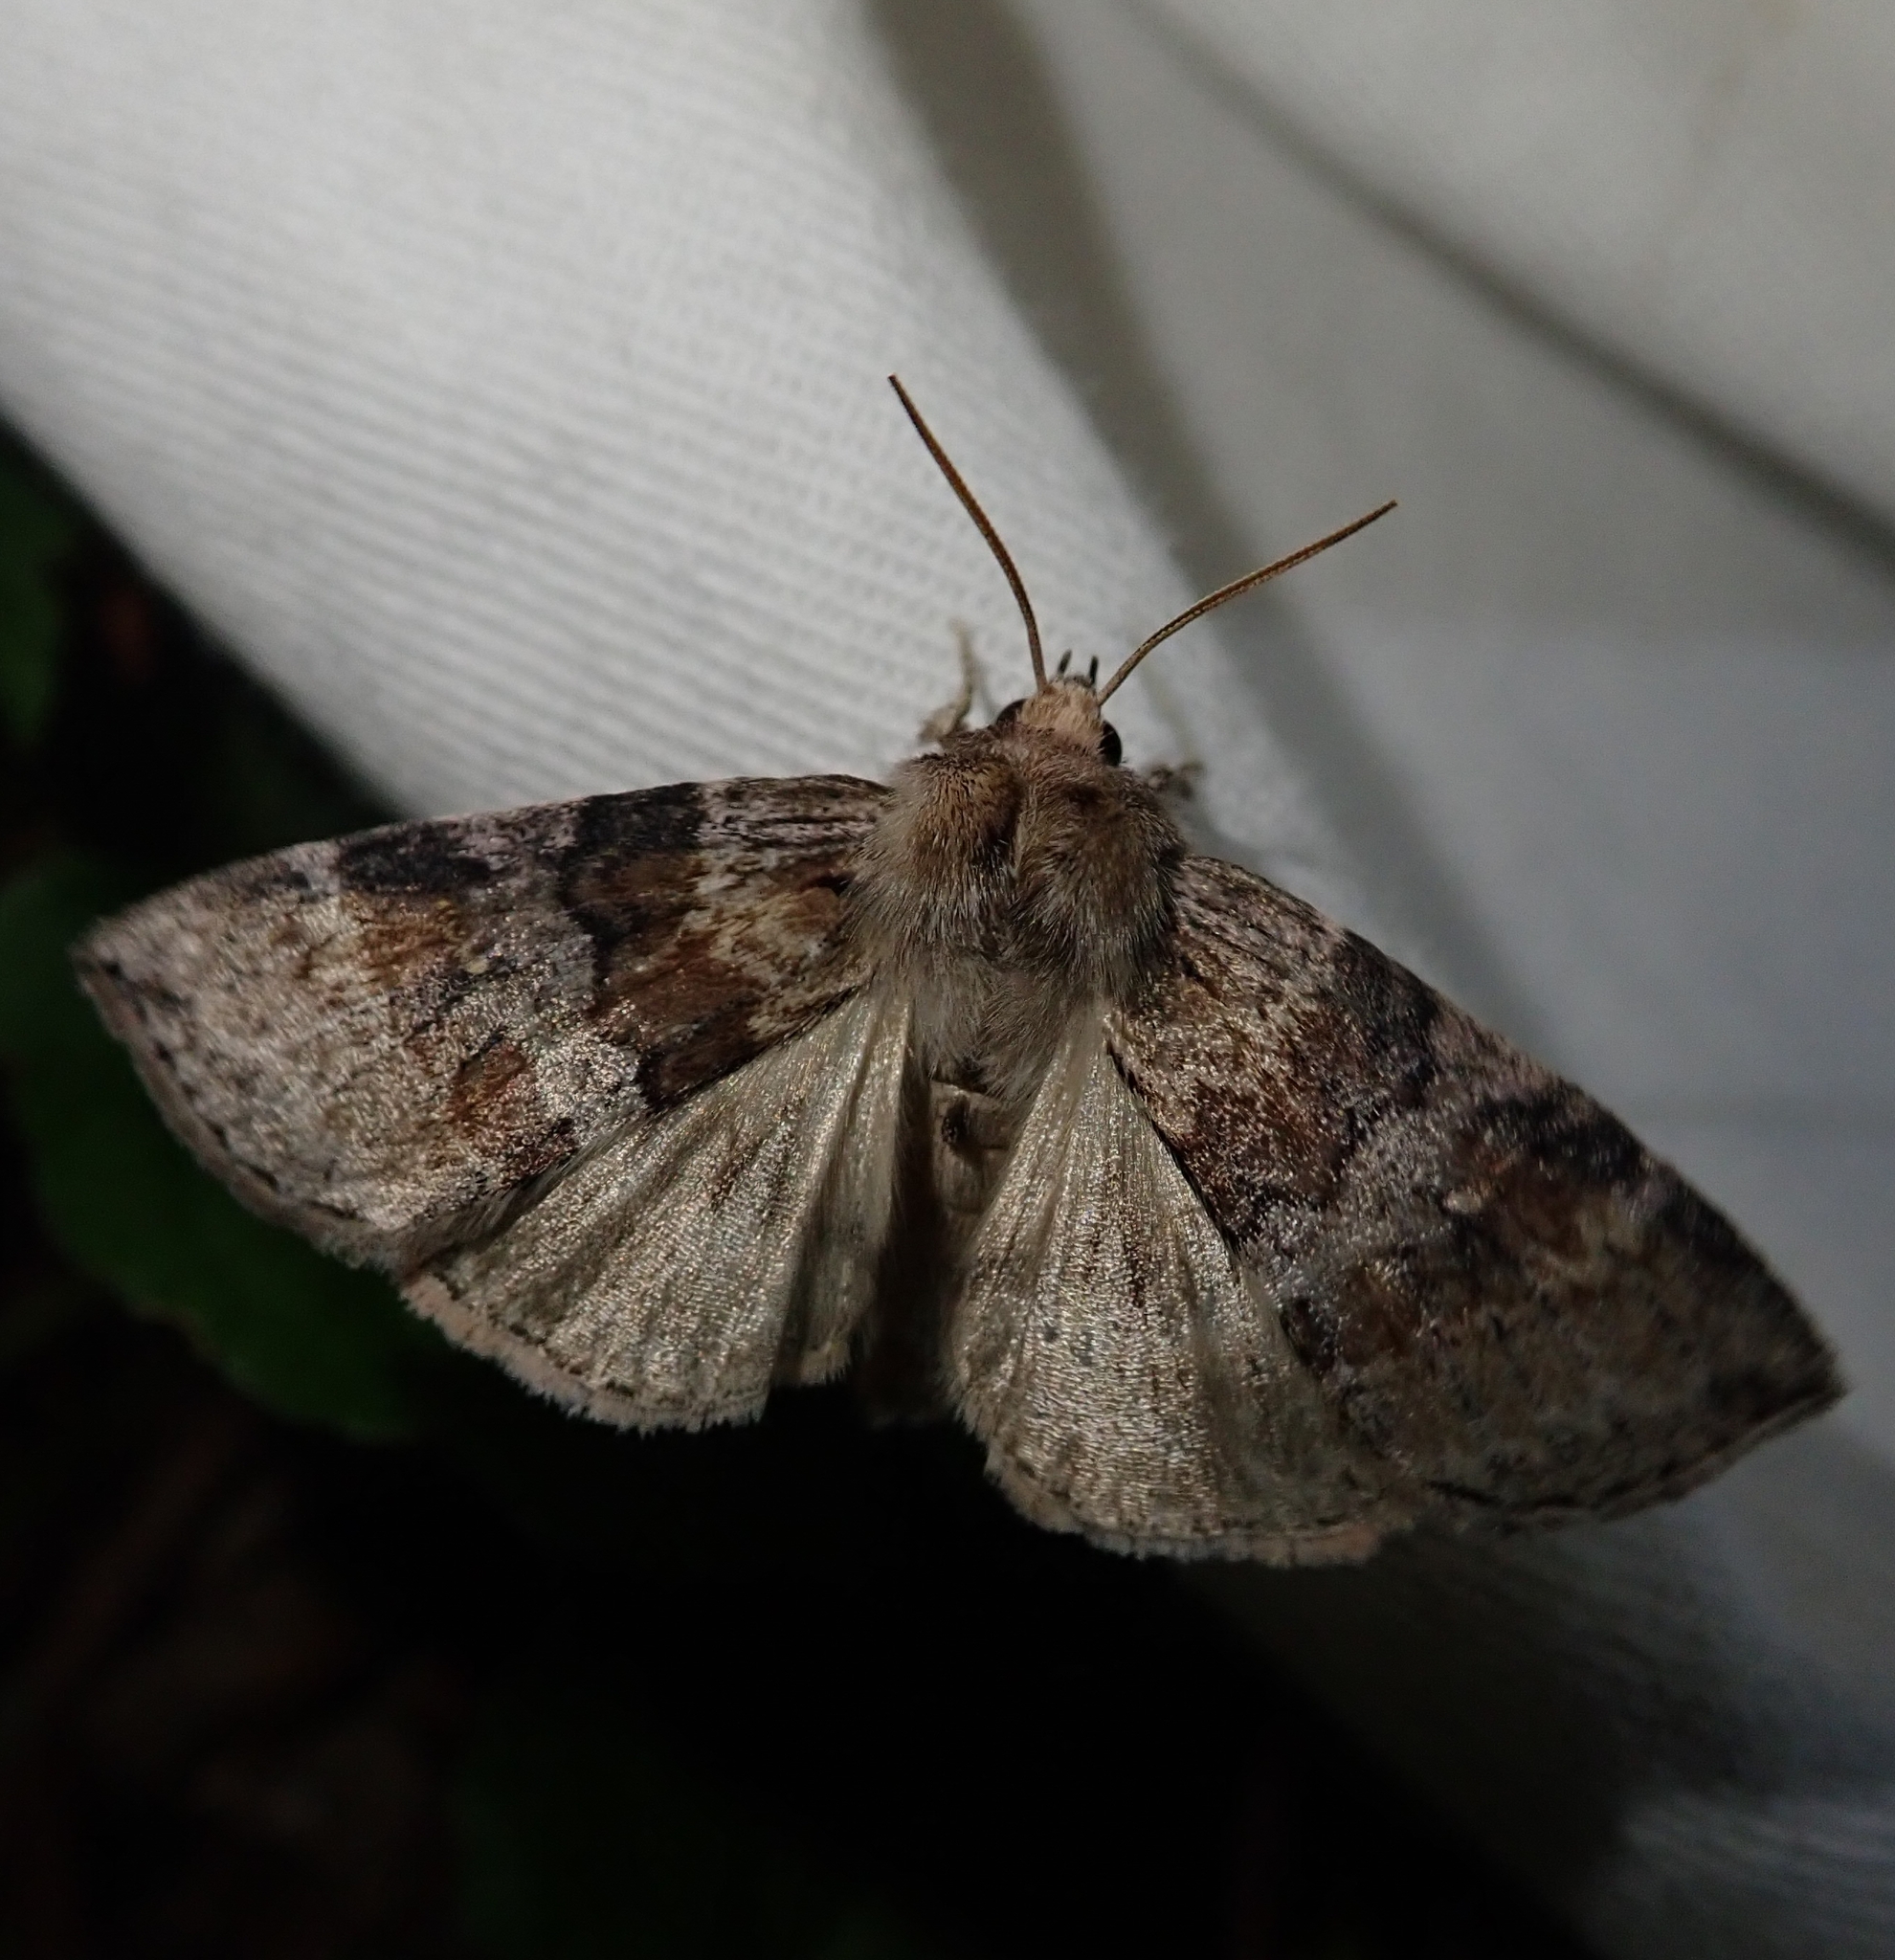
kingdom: Animalia
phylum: Arthropoda
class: Insecta
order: Lepidoptera
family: Drepanidae
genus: Cymatophorina
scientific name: Cymatophorina diluta
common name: Oak lutestring
